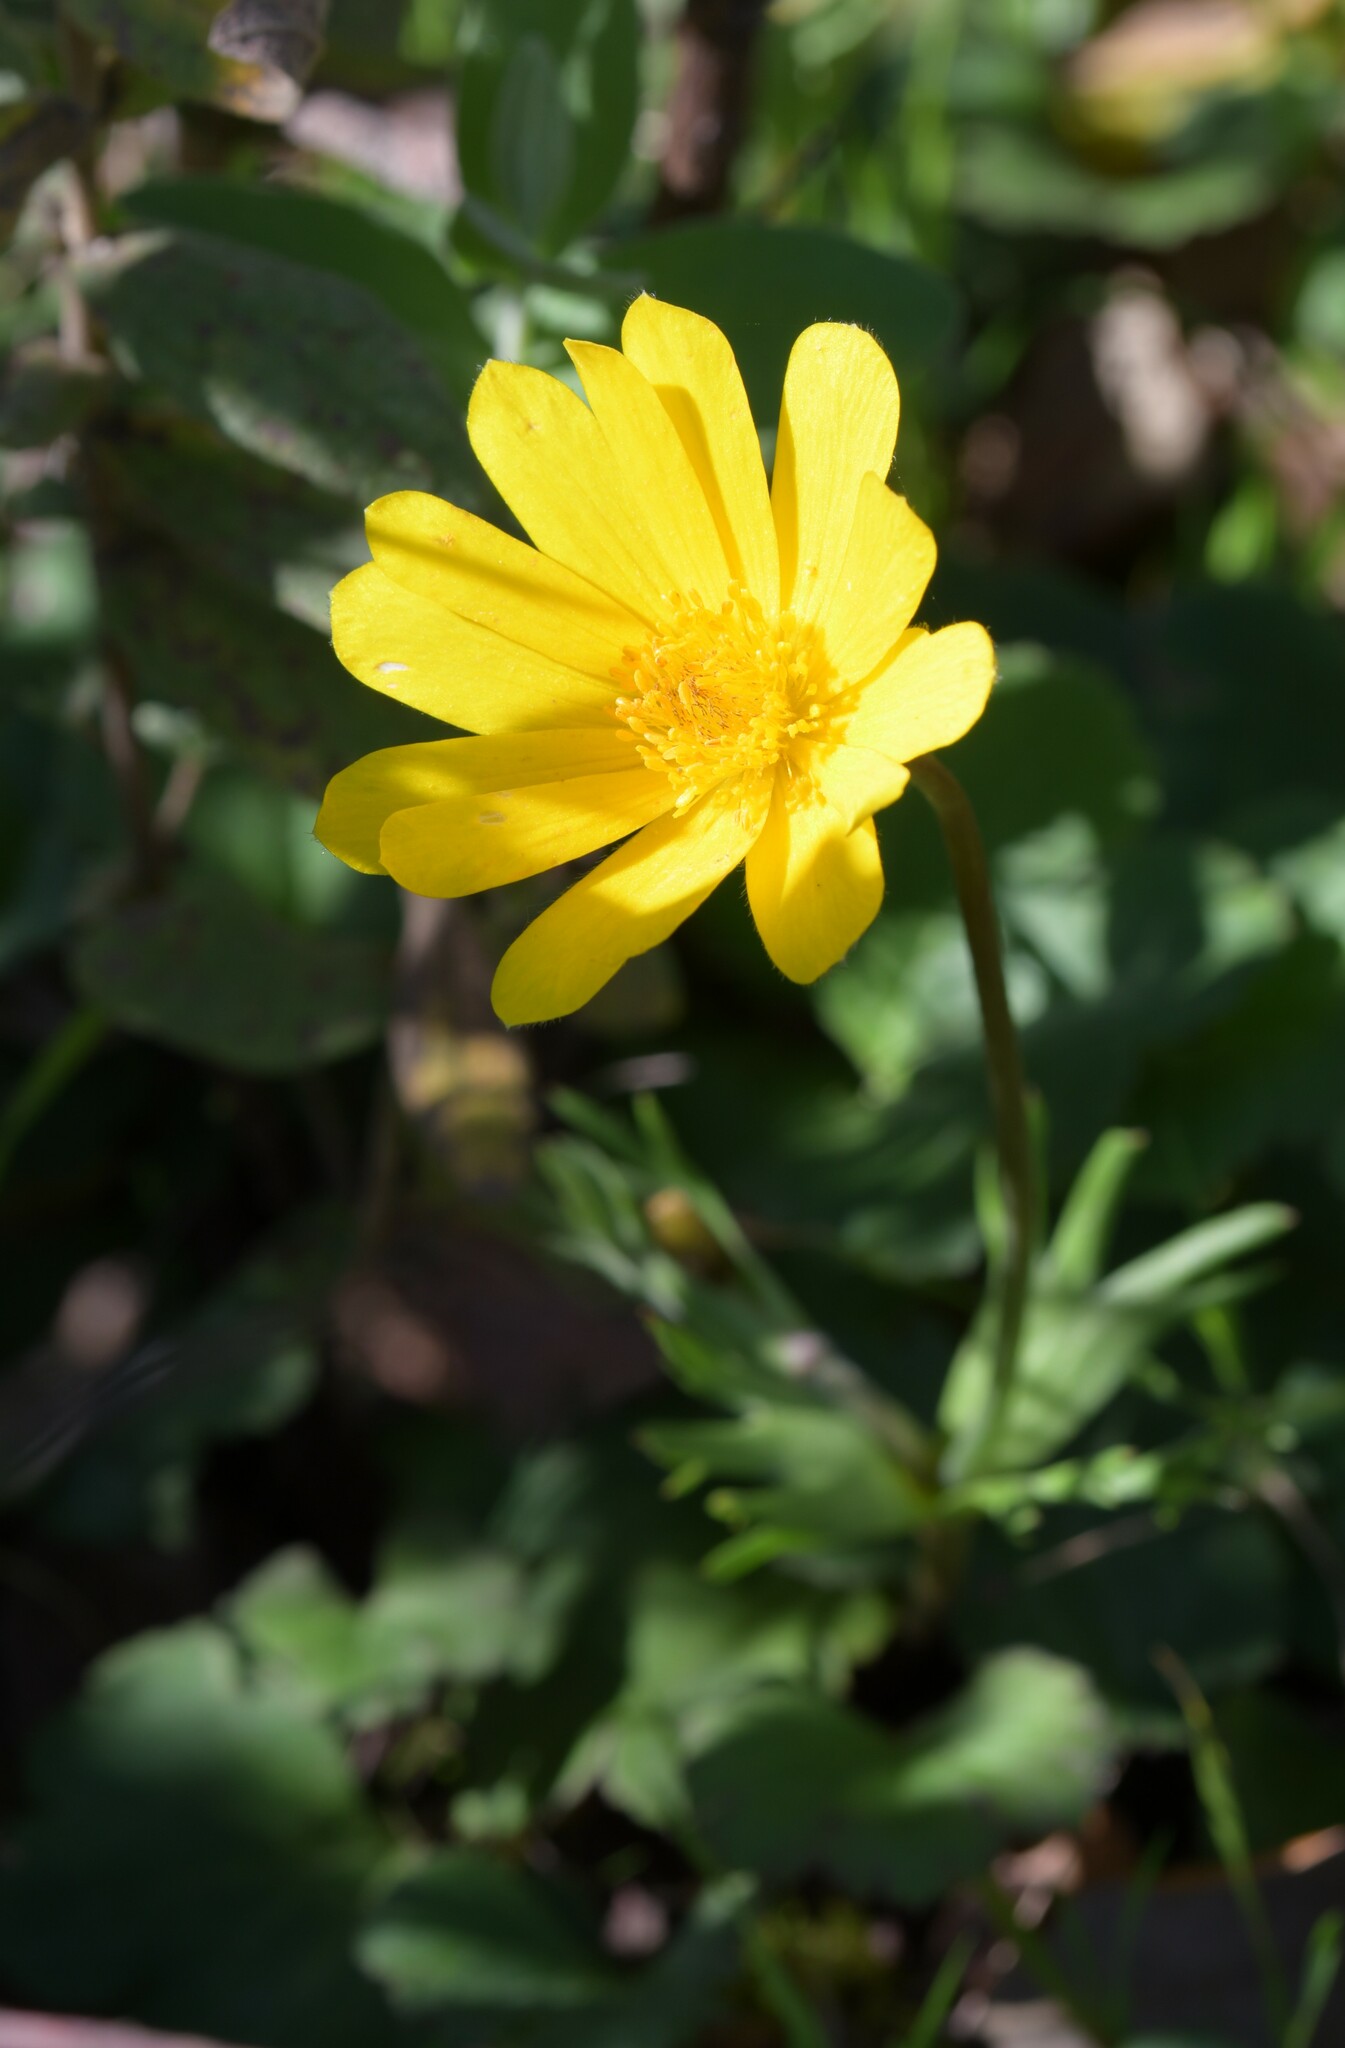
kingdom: Plantae
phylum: Tracheophyta
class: Magnoliopsida
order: Ranunculales
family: Ranunculaceae
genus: Anemone
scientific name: Anemone palmata
